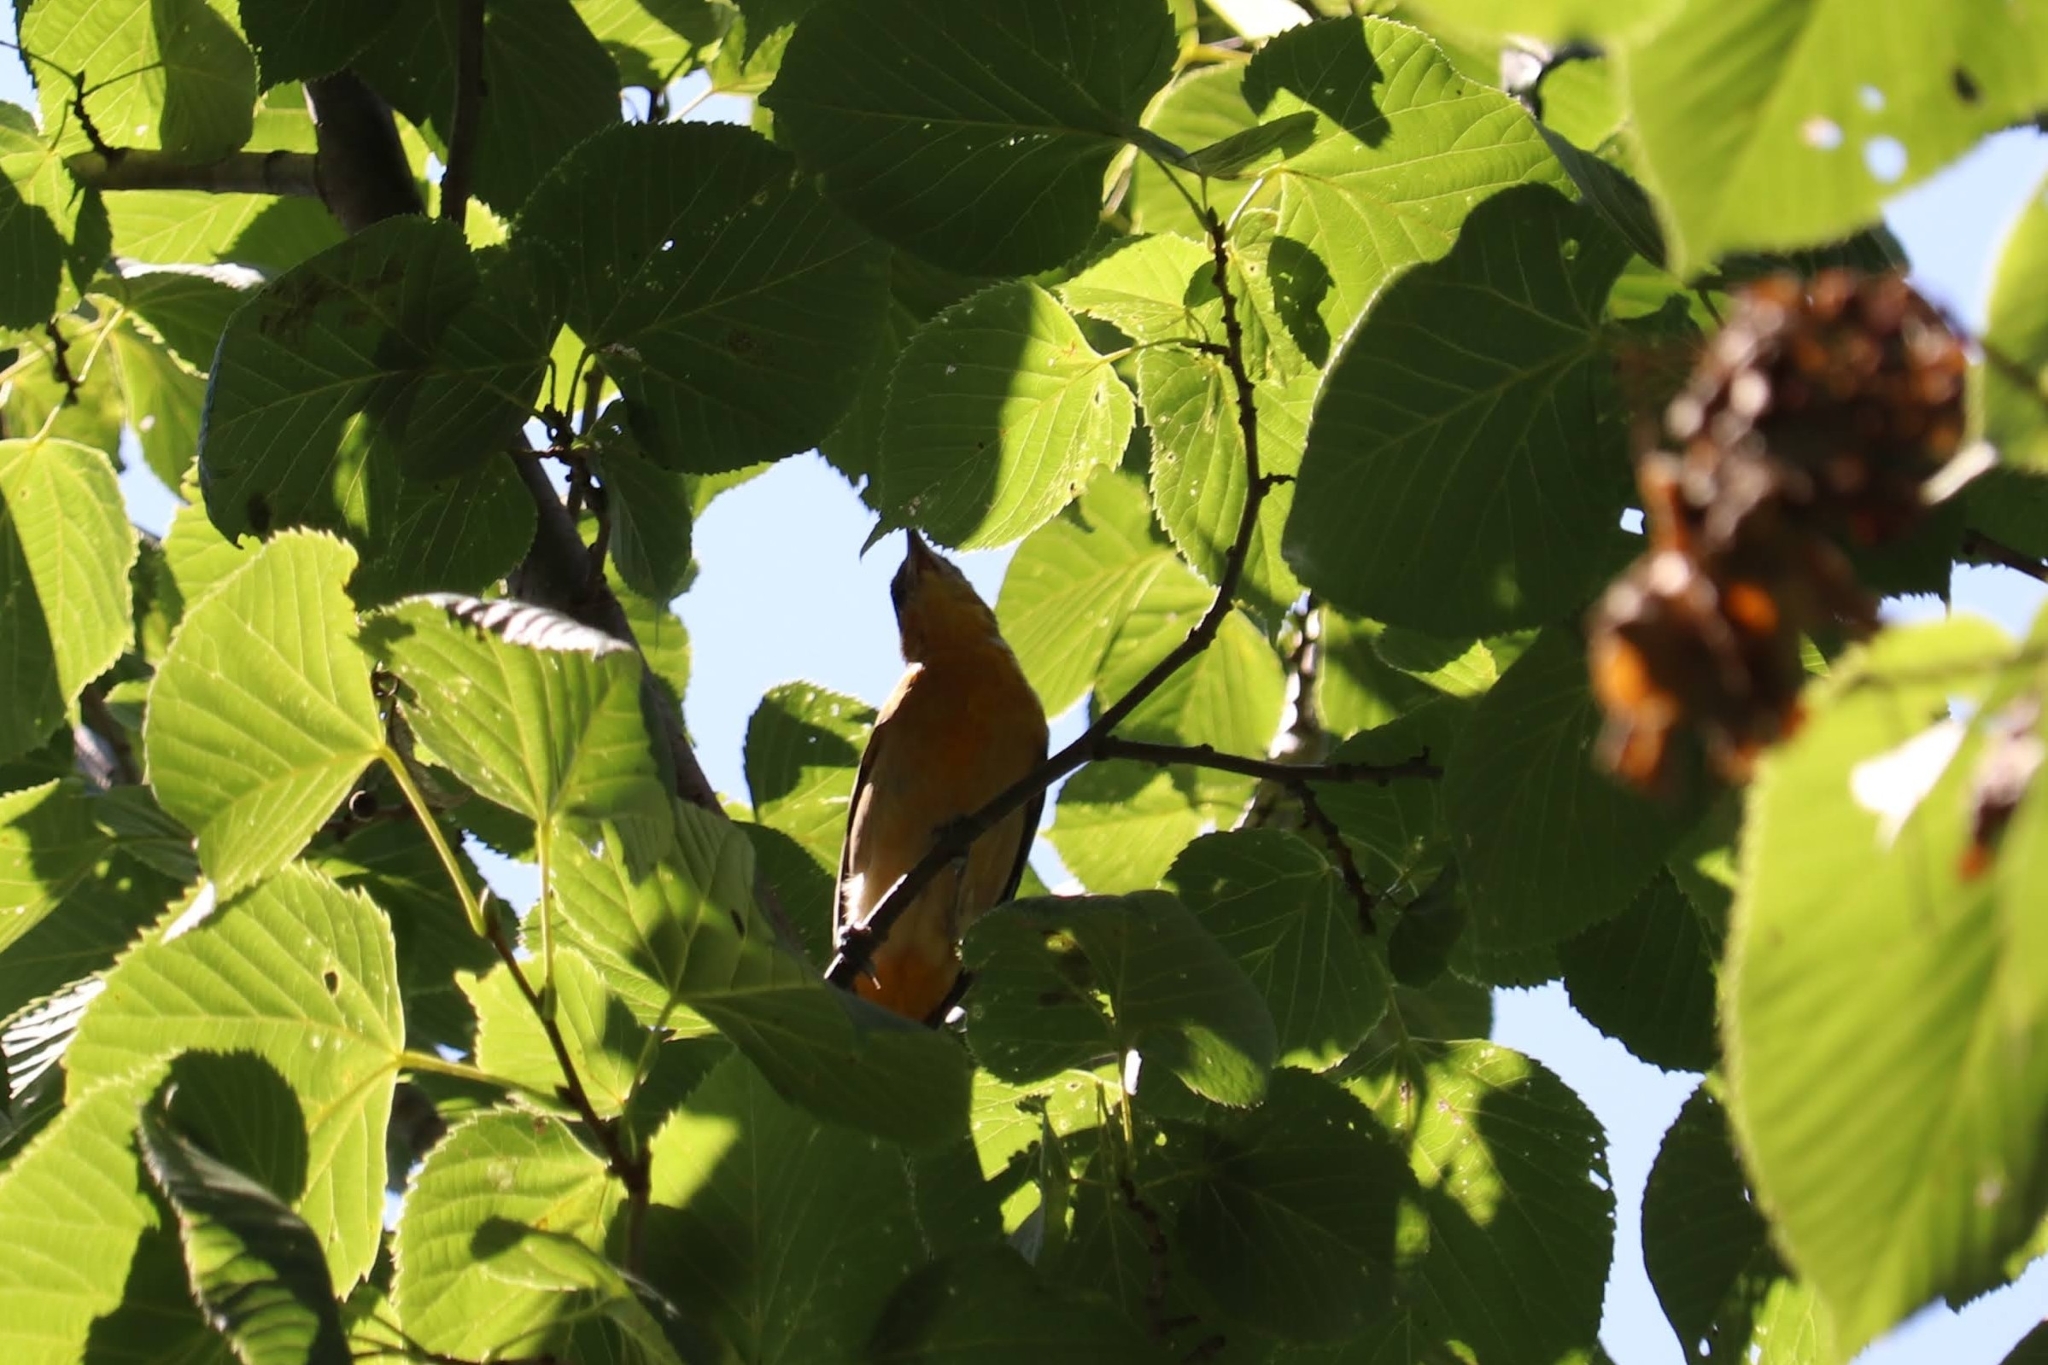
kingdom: Animalia
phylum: Chordata
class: Aves
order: Passeriformes
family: Icteridae
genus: Icterus
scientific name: Icterus galbula
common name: Baltimore oriole
